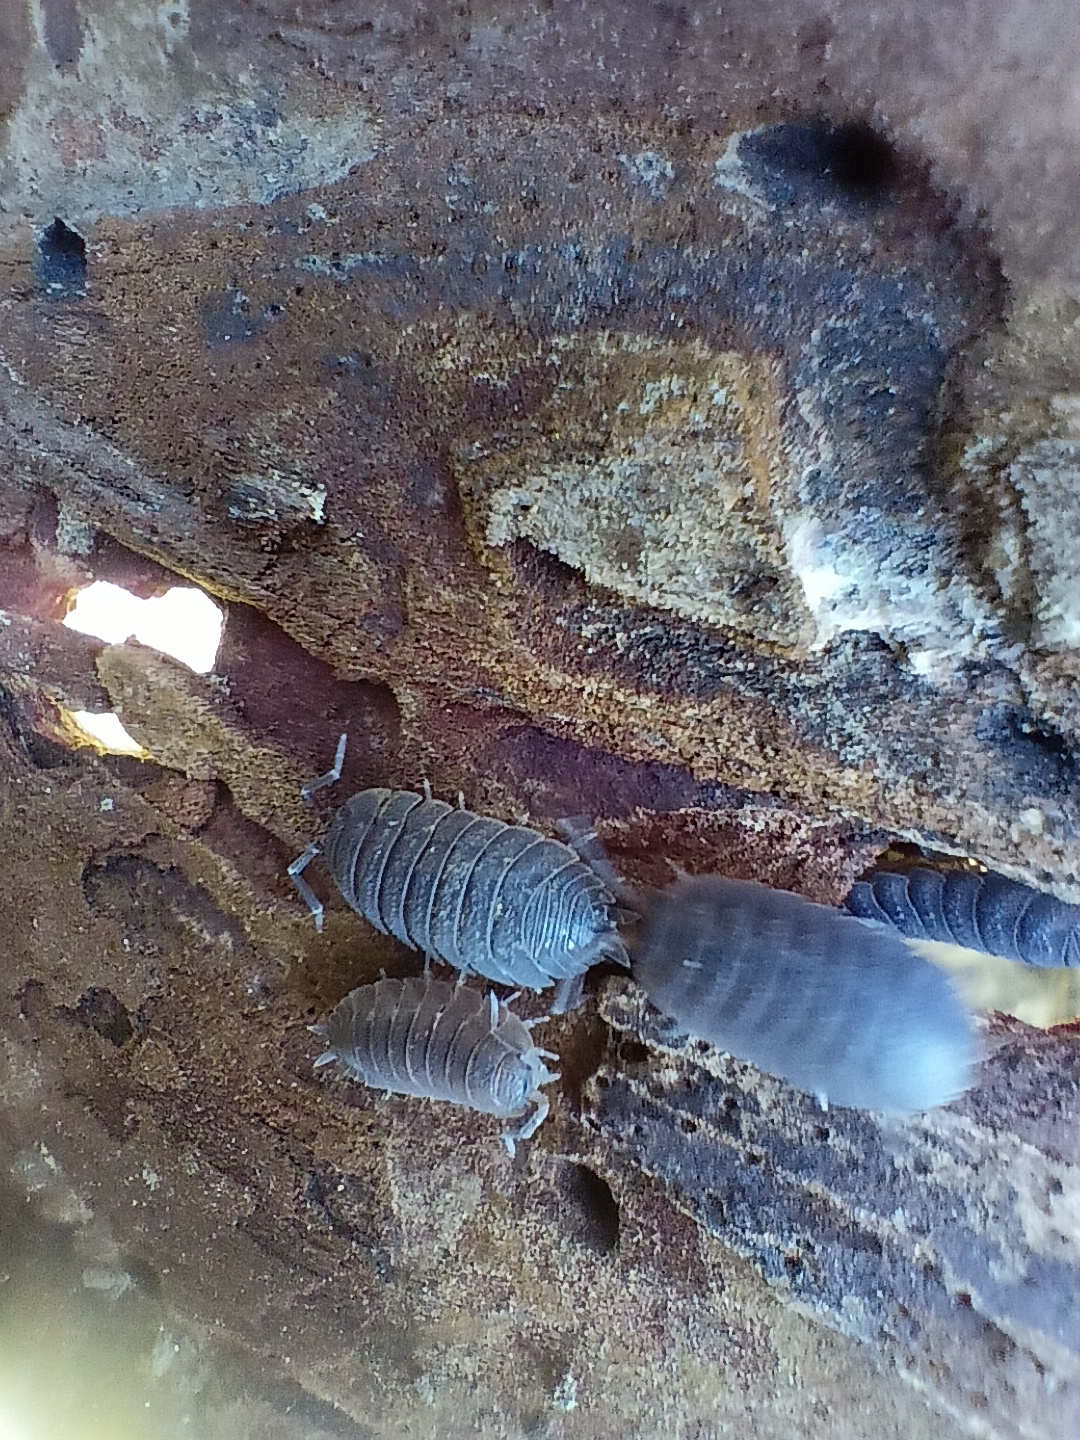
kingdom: Animalia
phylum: Arthropoda
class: Malacostraca
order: Isopoda
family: Porcellionidae
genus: Porcellio
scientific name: Porcellio scaber
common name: Common rough woodlouse
